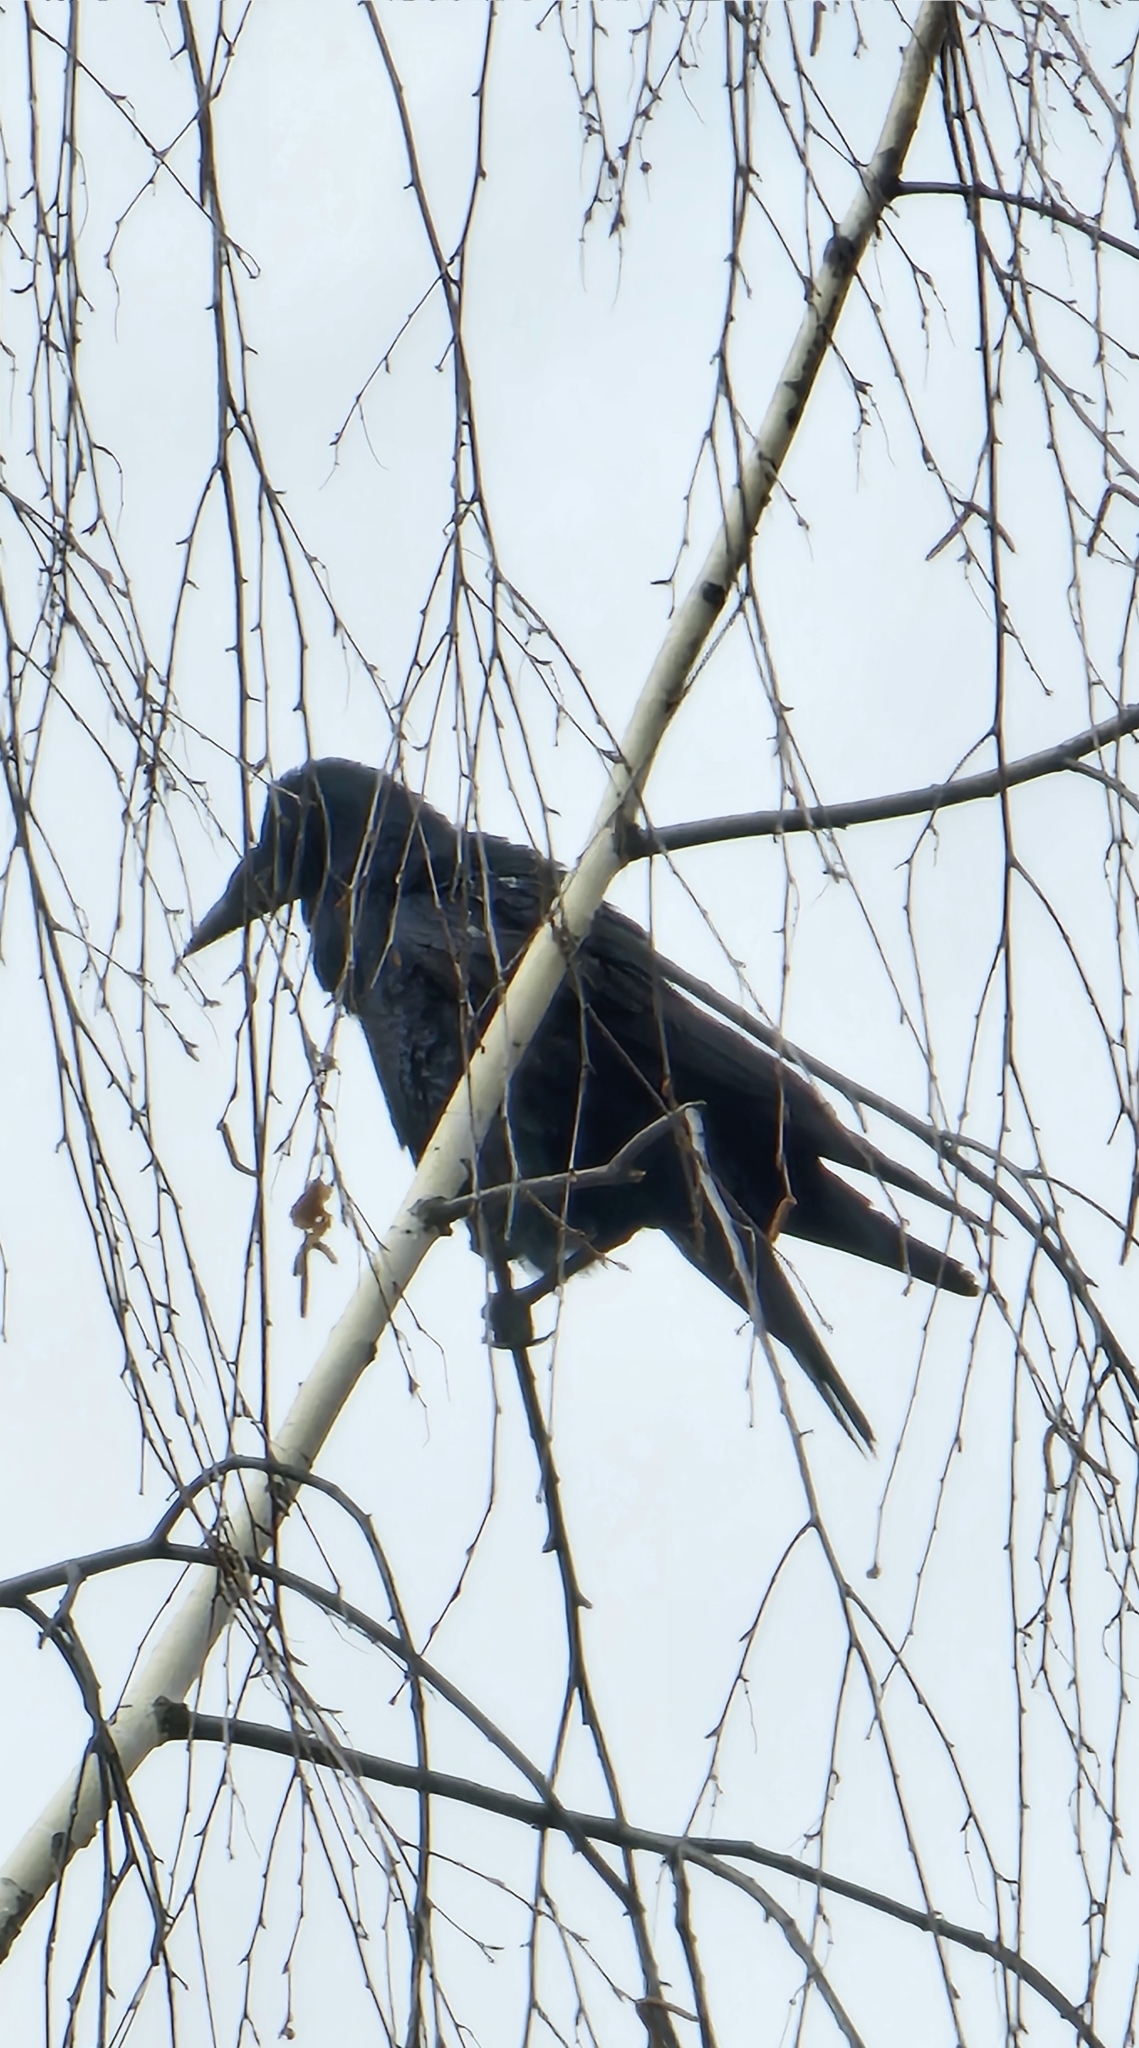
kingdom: Animalia
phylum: Chordata
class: Aves
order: Passeriformes
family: Corvidae
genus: Corvus
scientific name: Corvus frugilegus
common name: Rook
